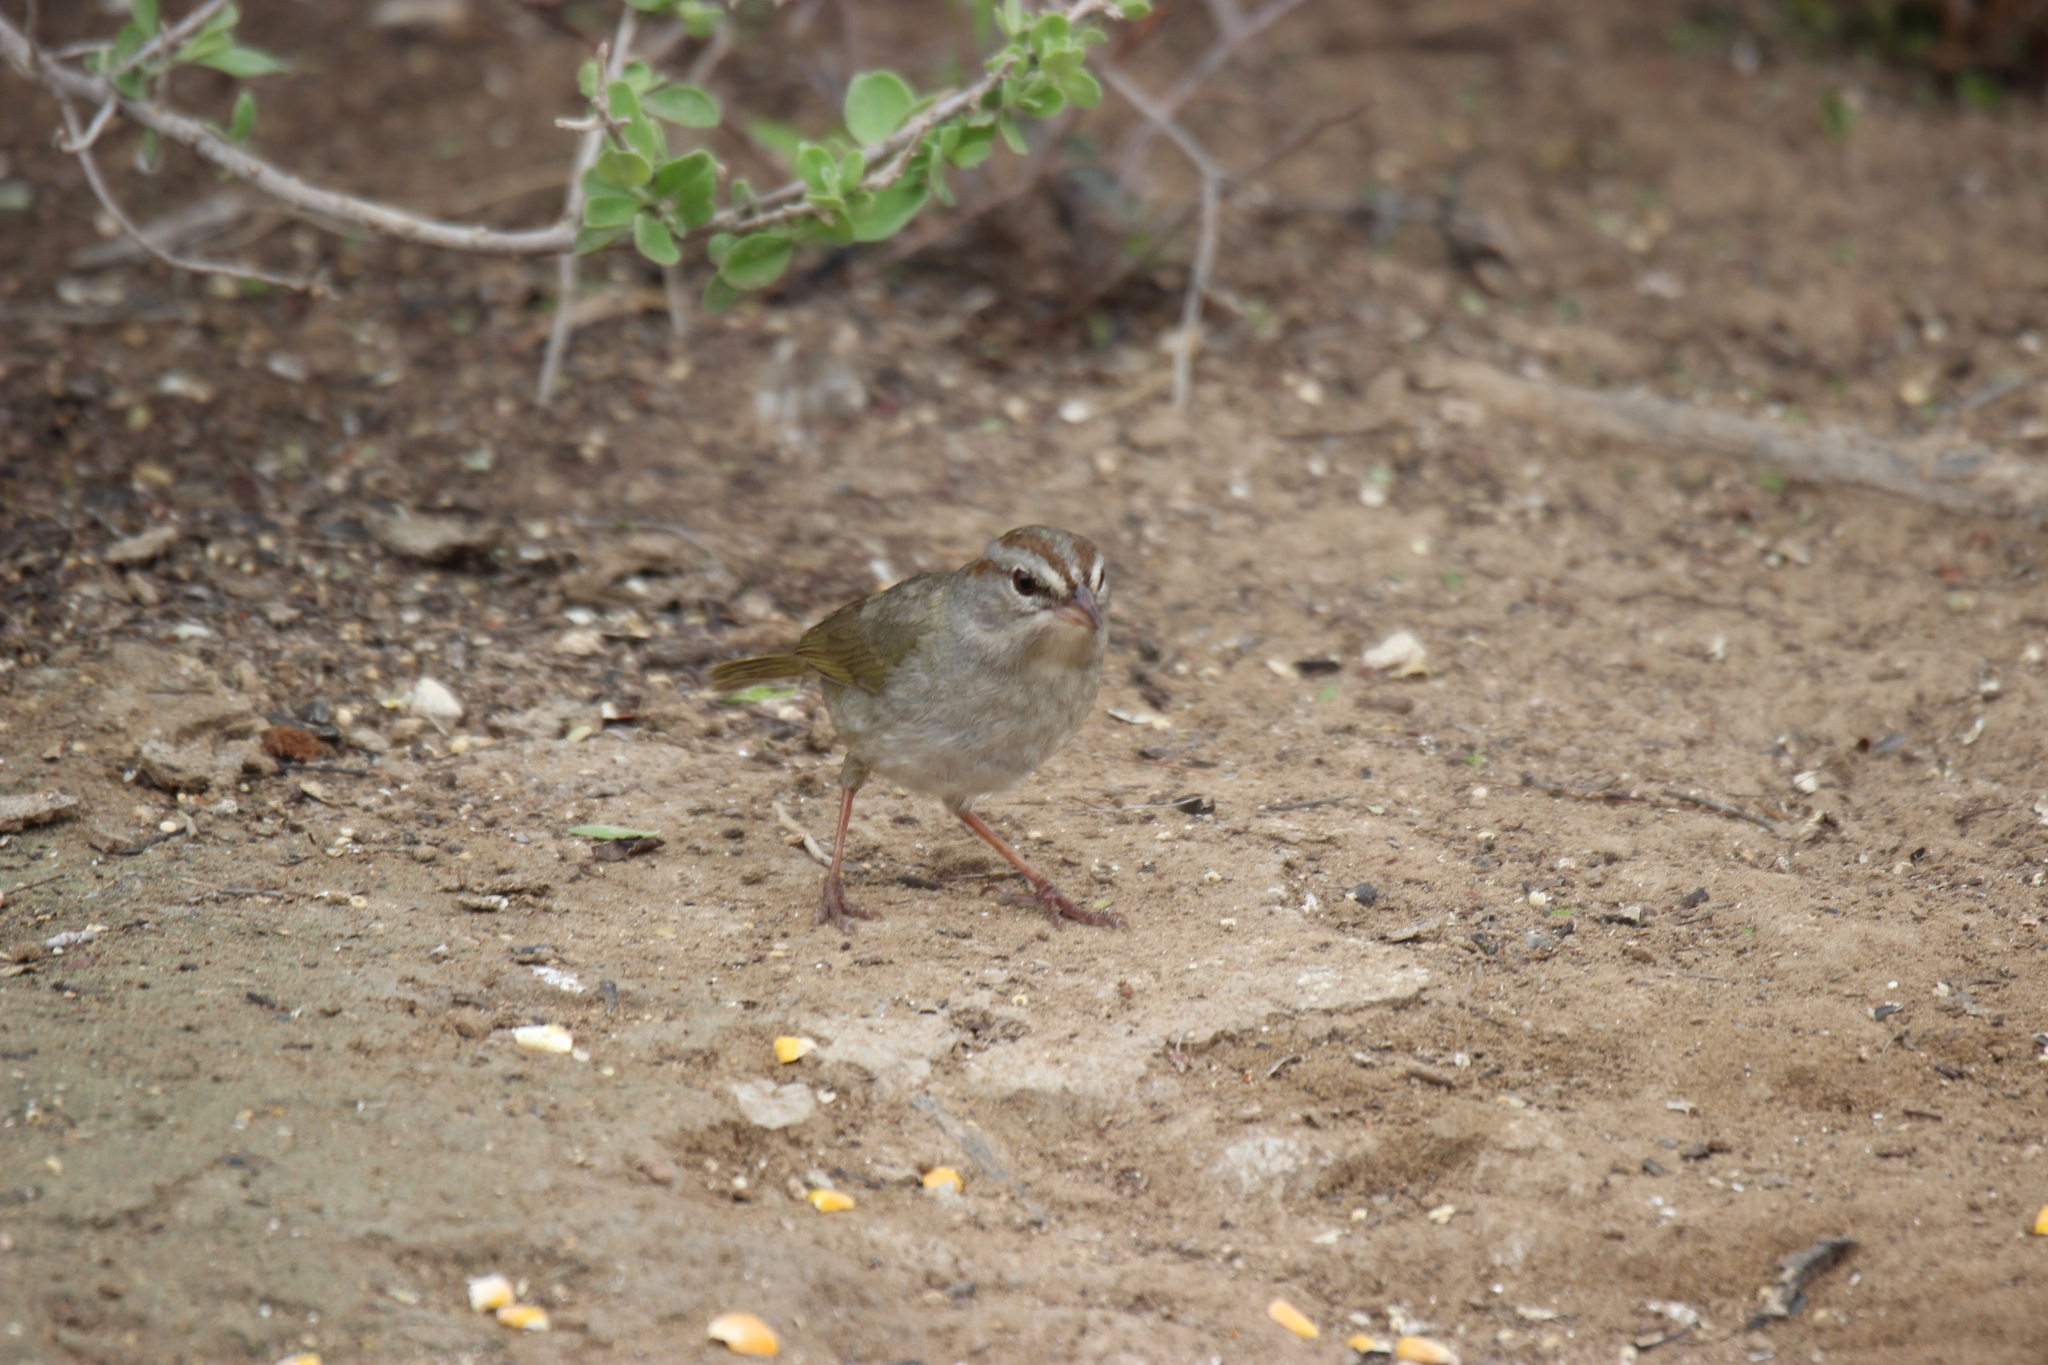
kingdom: Animalia
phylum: Chordata
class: Aves
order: Passeriformes
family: Passerellidae
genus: Arremonops
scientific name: Arremonops rufivirgatus
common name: Olive sparrow
